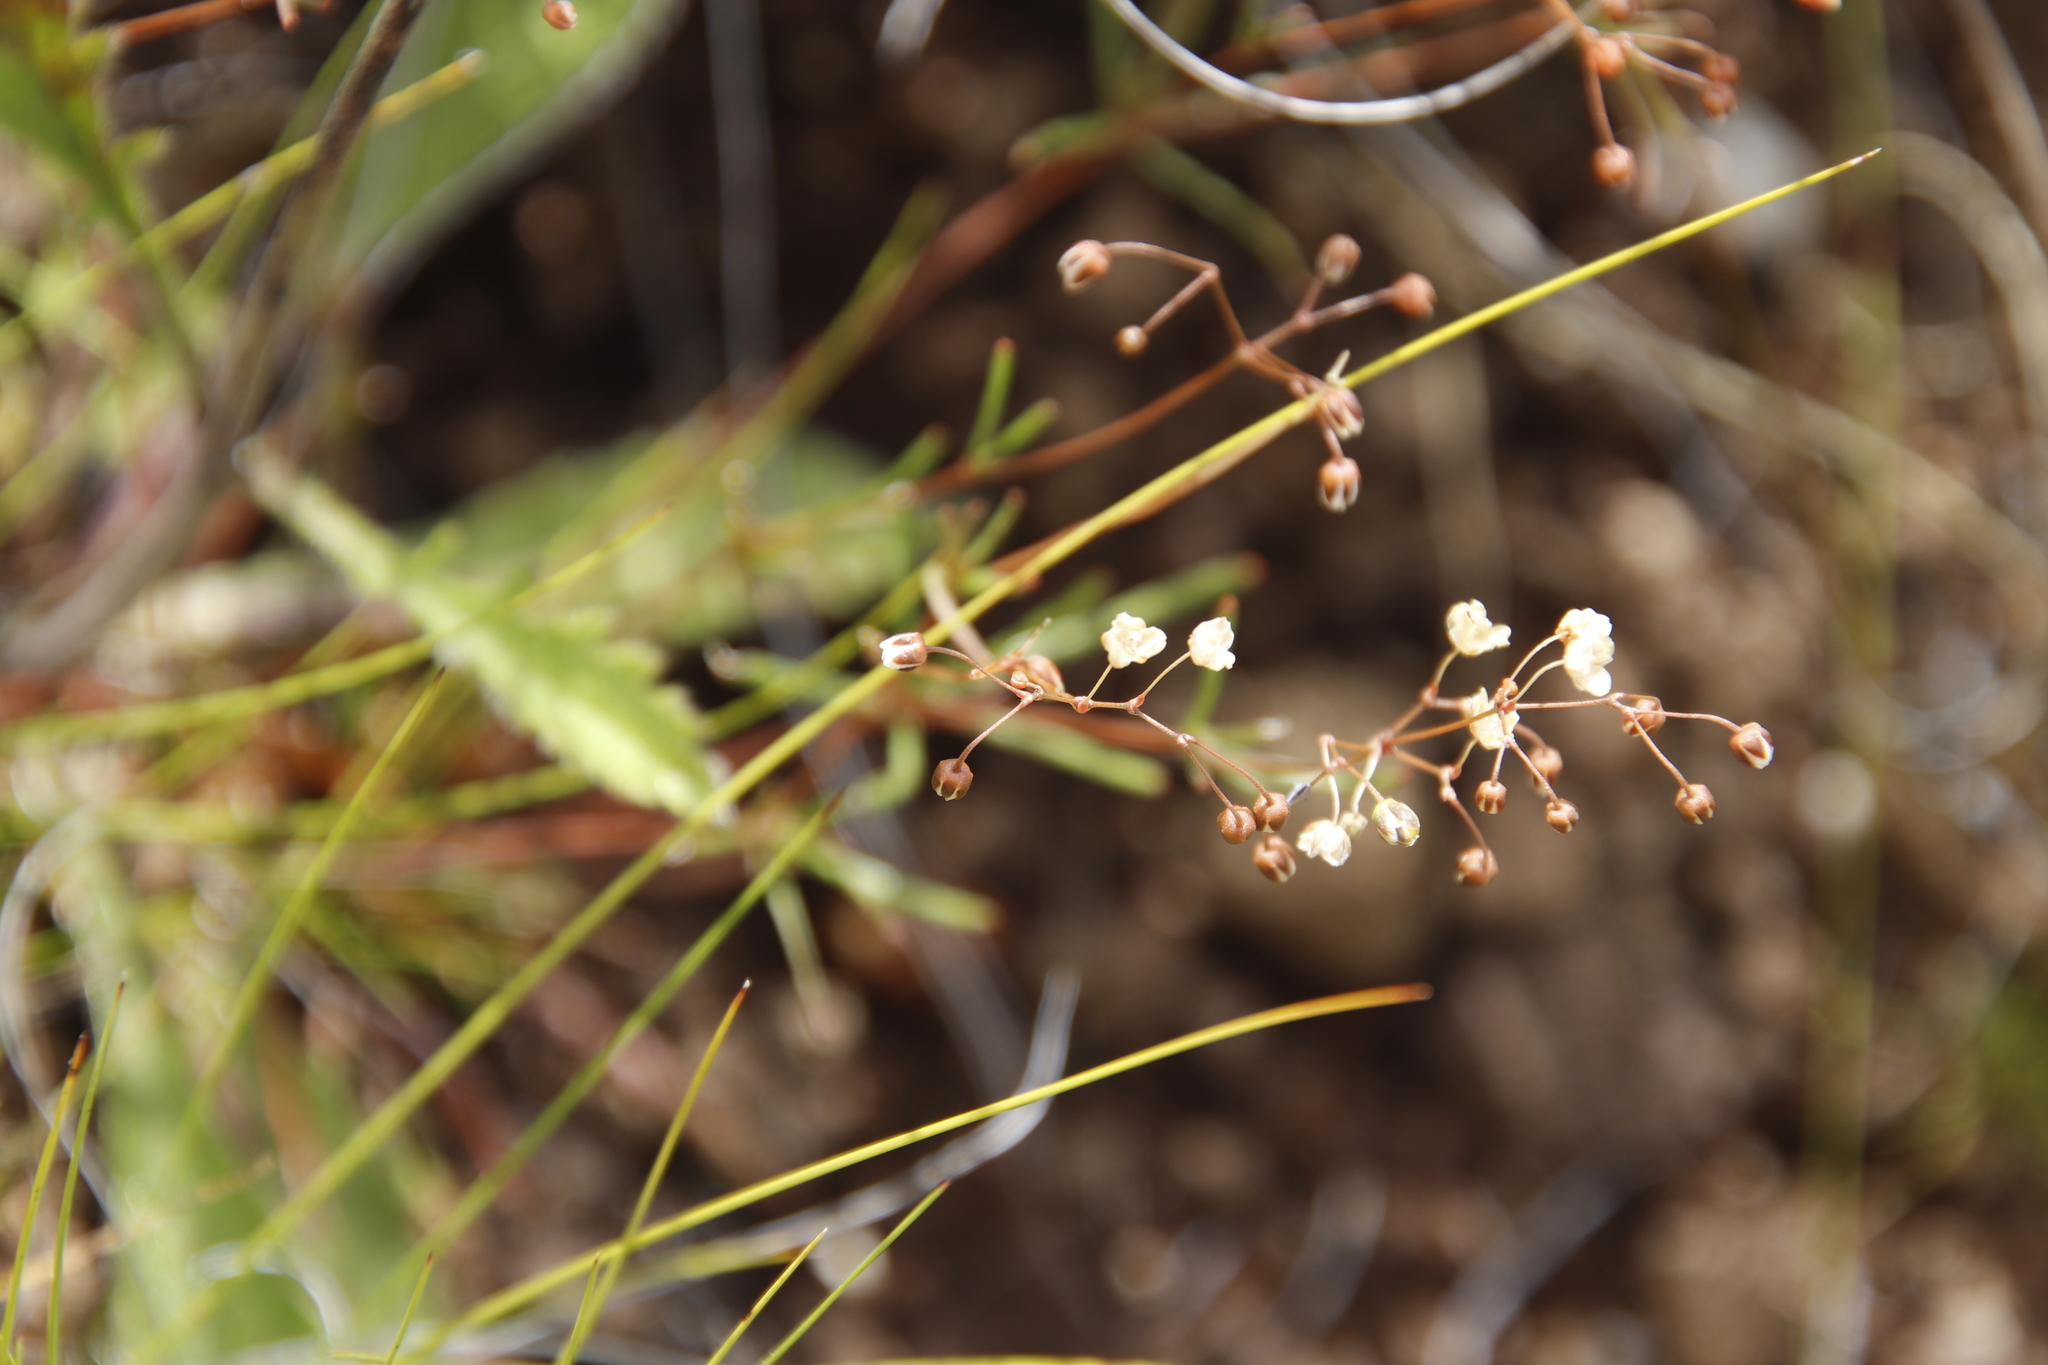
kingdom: Plantae
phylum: Tracheophyta
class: Magnoliopsida
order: Caryophyllales
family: Molluginaceae
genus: Pharnaceum
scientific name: Pharnaceum alpinum
